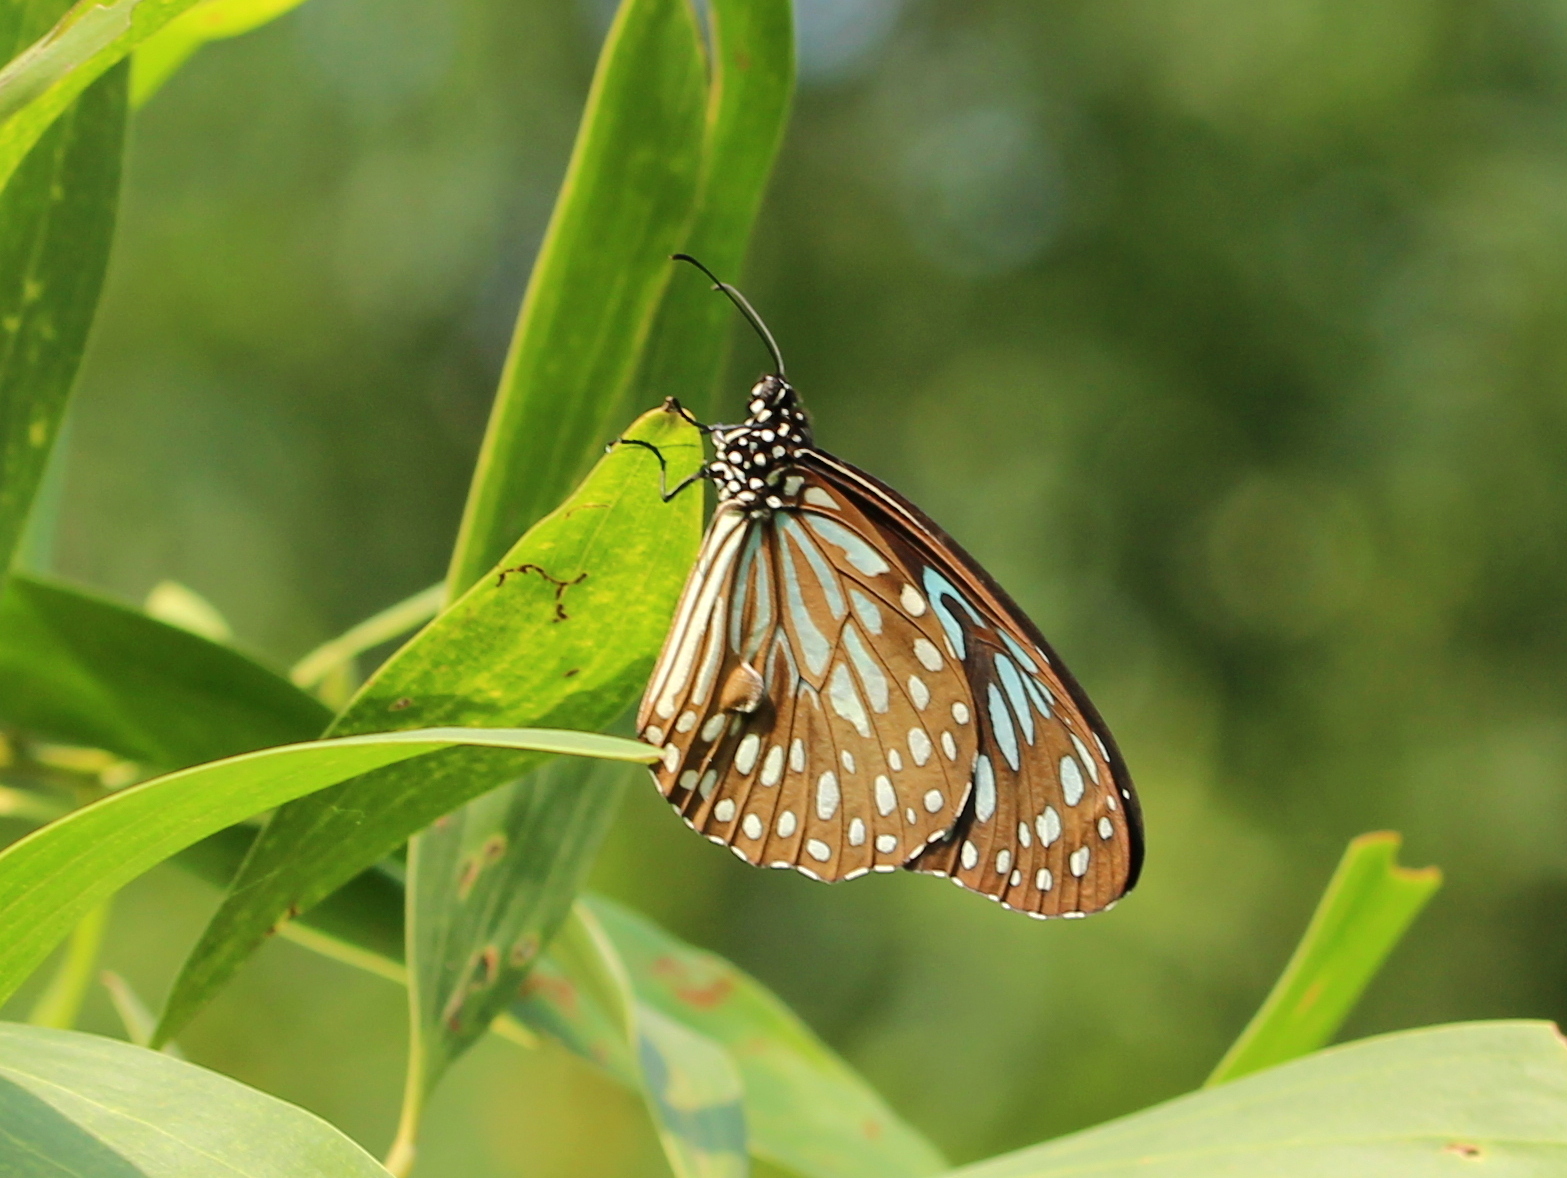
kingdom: Animalia
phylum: Arthropoda
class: Insecta
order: Lepidoptera
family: Nymphalidae
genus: Tirumala
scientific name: Tirumala septentrionis
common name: Dark blue tiger butterfly
